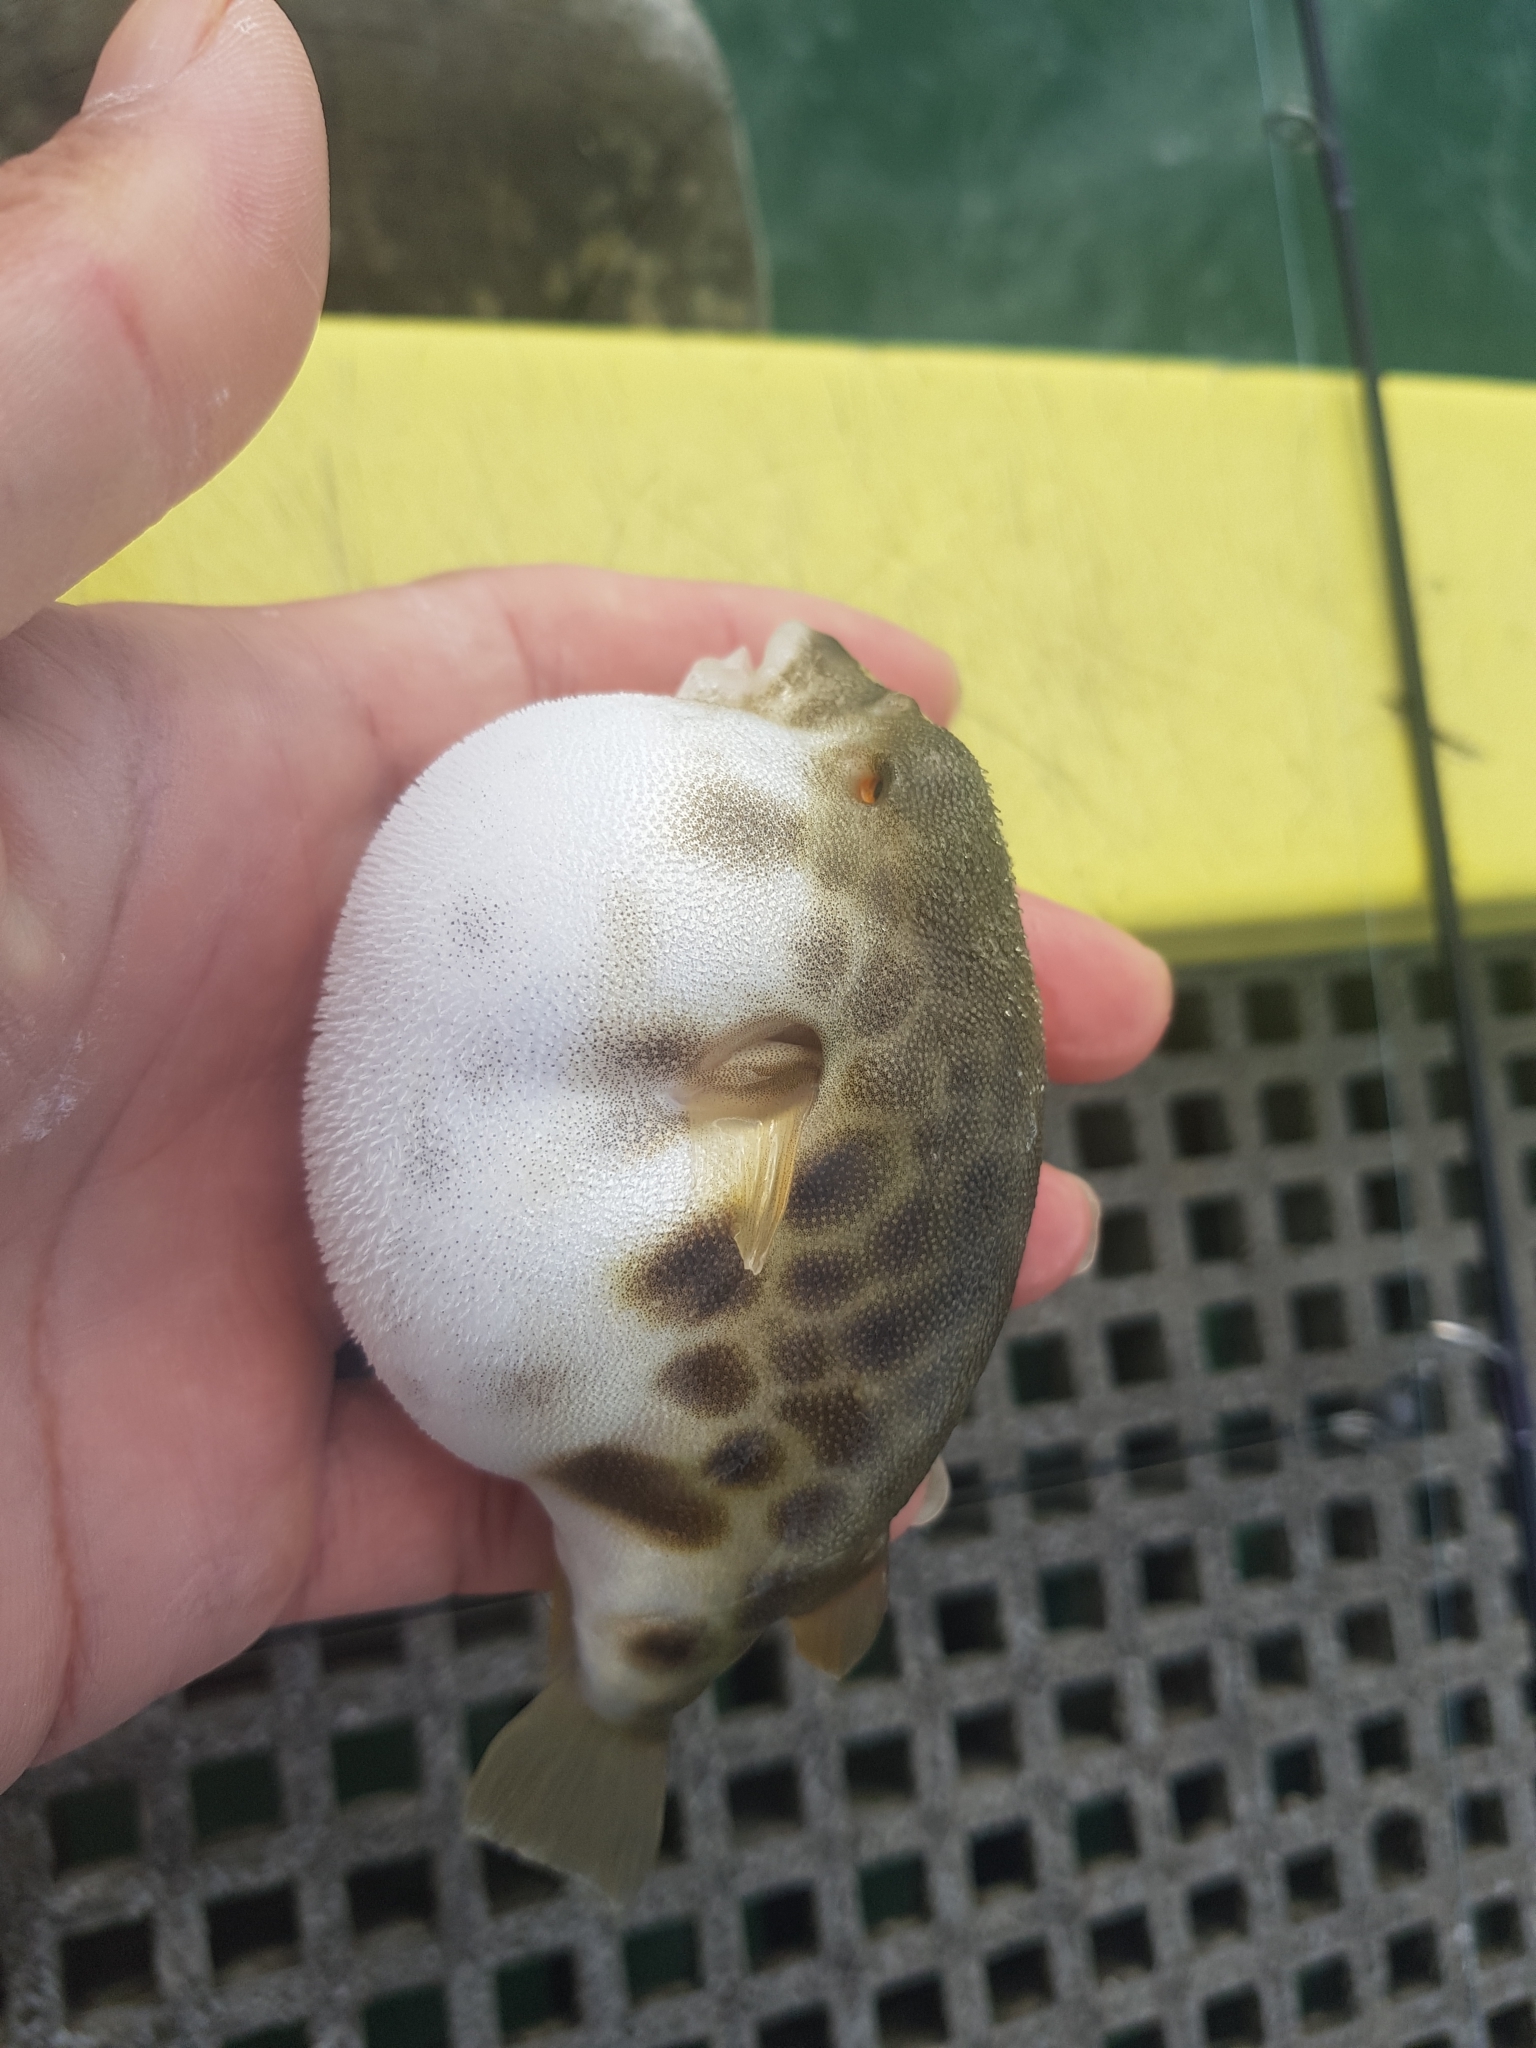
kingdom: Animalia
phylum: Chordata
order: Tetraodontiformes
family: Tetraodontidae
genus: Contusus
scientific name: Contusus brevicaudus
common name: Prickly toadfish
